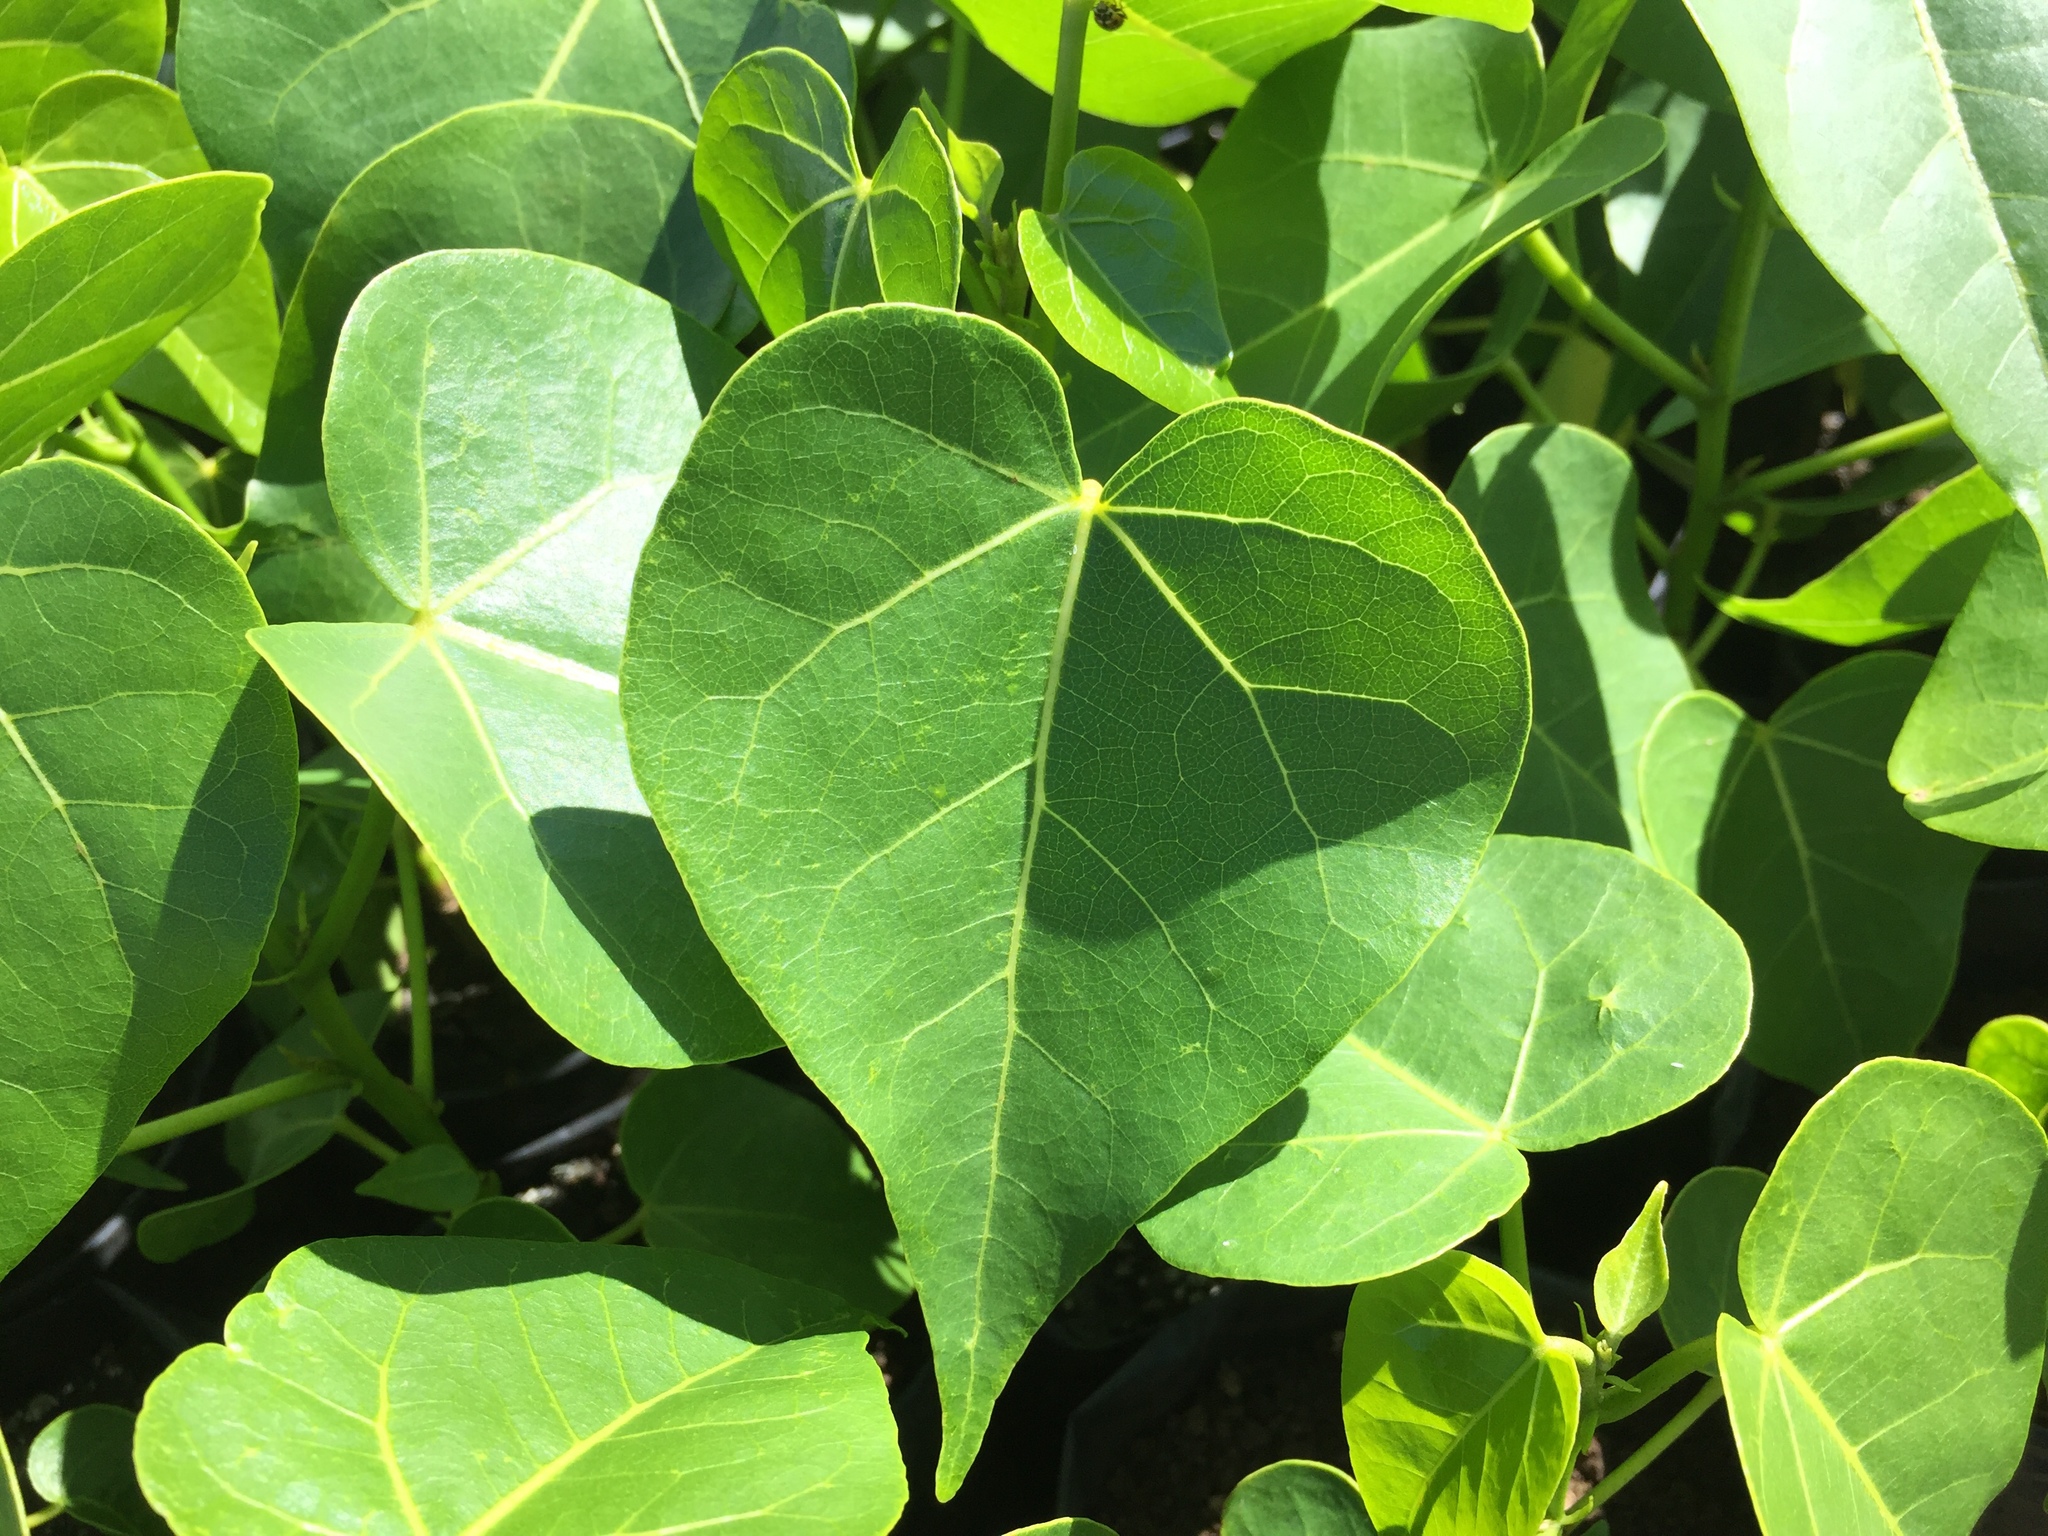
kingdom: Plantae
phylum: Tracheophyta
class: Magnoliopsida
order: Malvales
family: Malvaceae
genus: Thespesia
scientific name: Thespesia populnea
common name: Seaside mahoe
